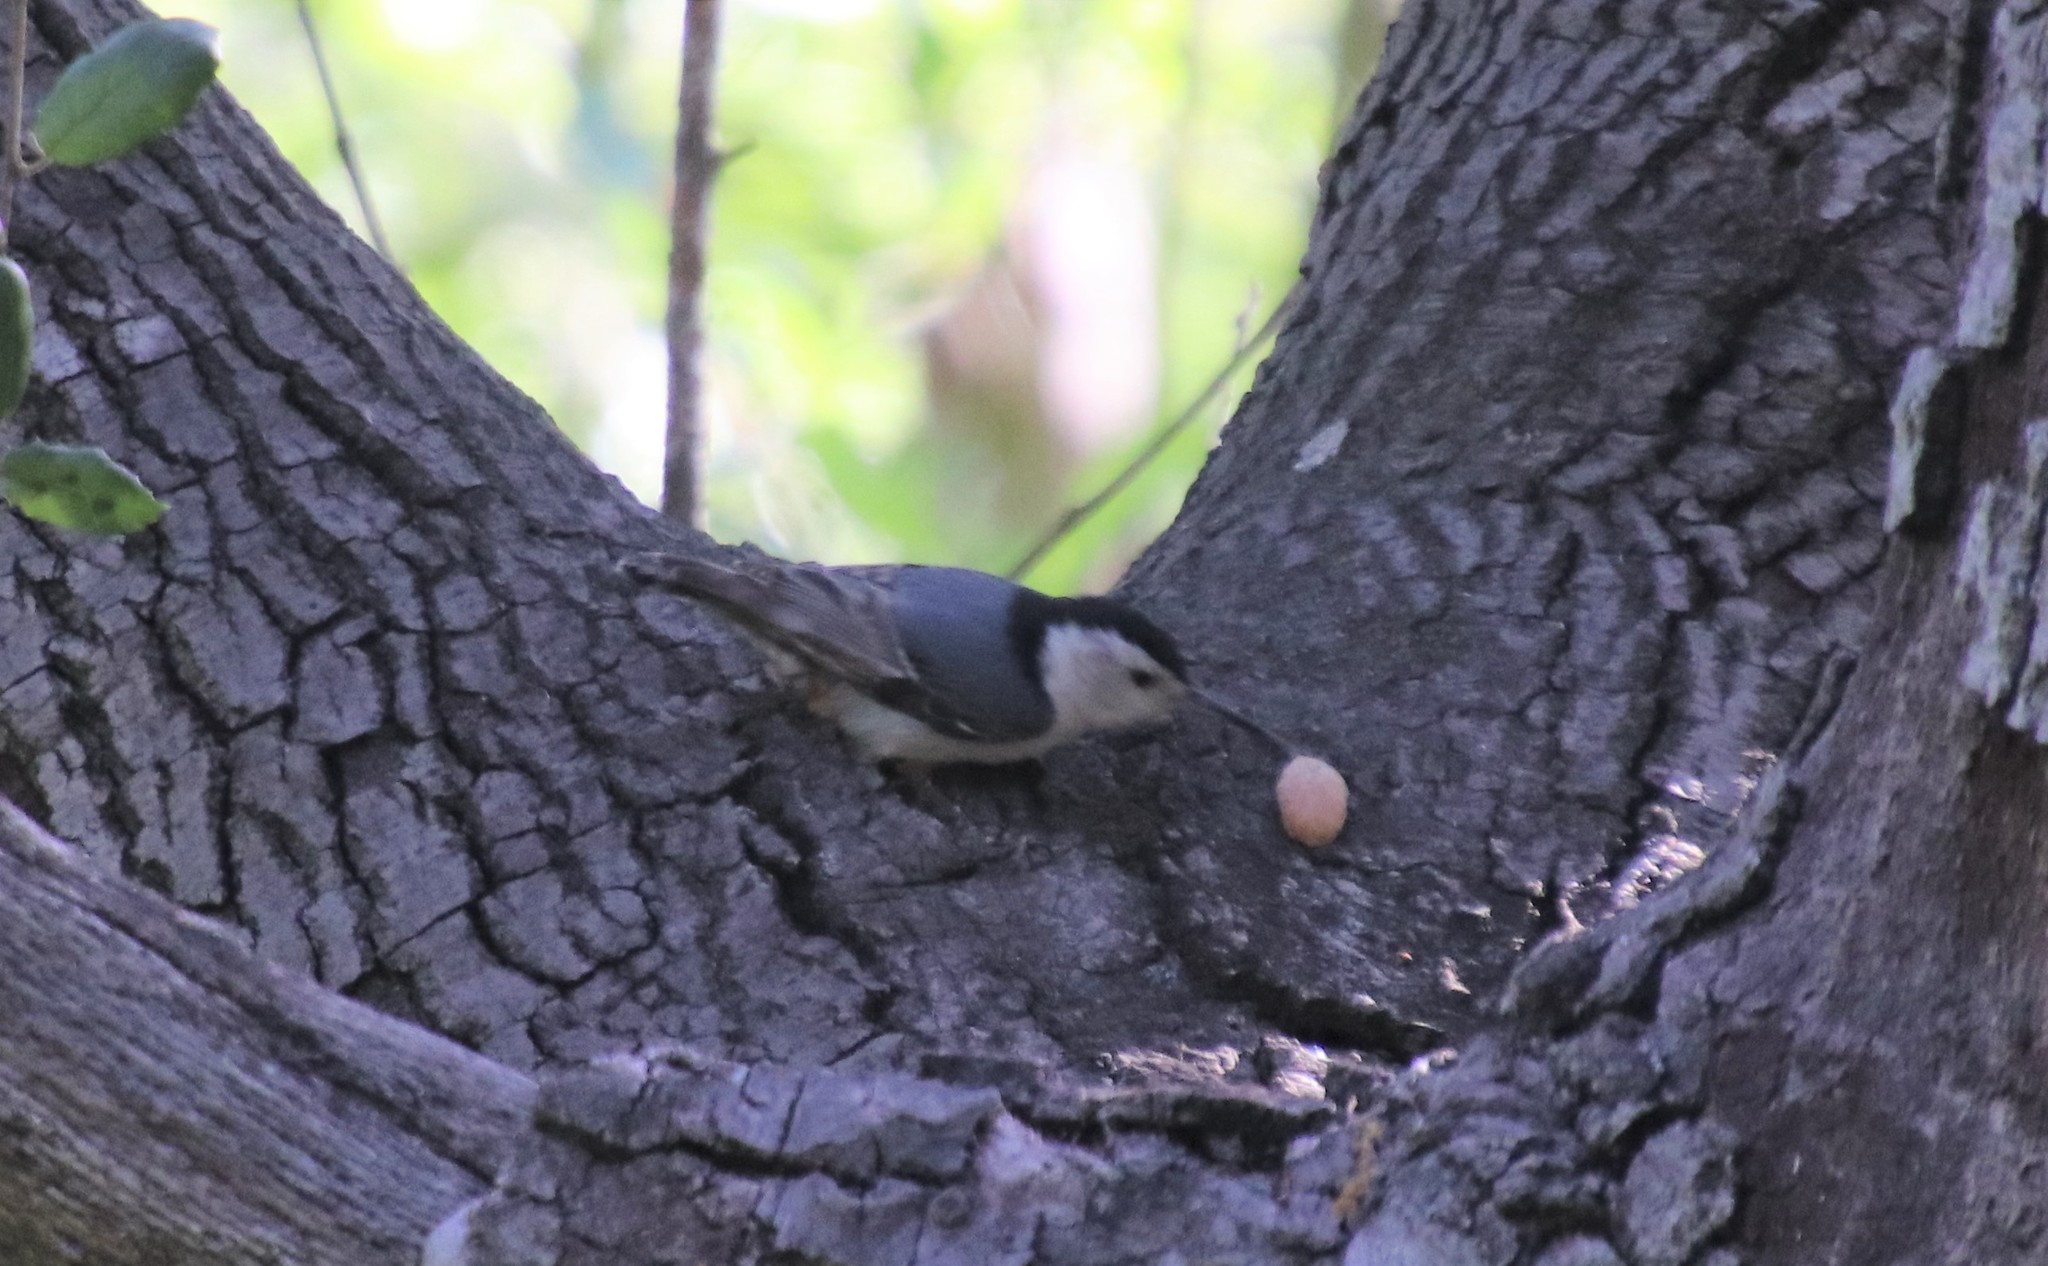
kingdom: Animalia
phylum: Chordata
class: Aves
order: Passeriformes
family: Sittidae
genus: Sitta
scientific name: Sitta carolinensis
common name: White-breasted nuthatch
